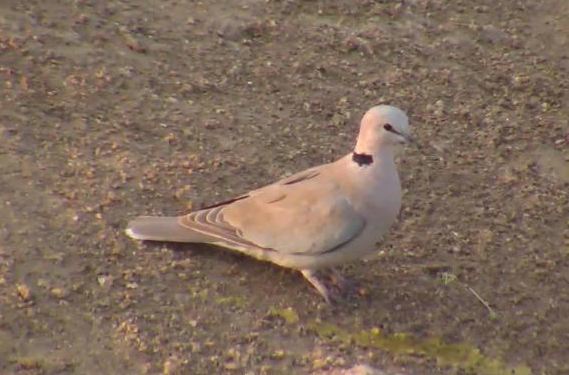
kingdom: Animalia
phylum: Chordata
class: Aves
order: Columbiformes
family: Columbidae
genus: Streptopelia
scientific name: Streptopelia capicola
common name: Ring-necked dove
